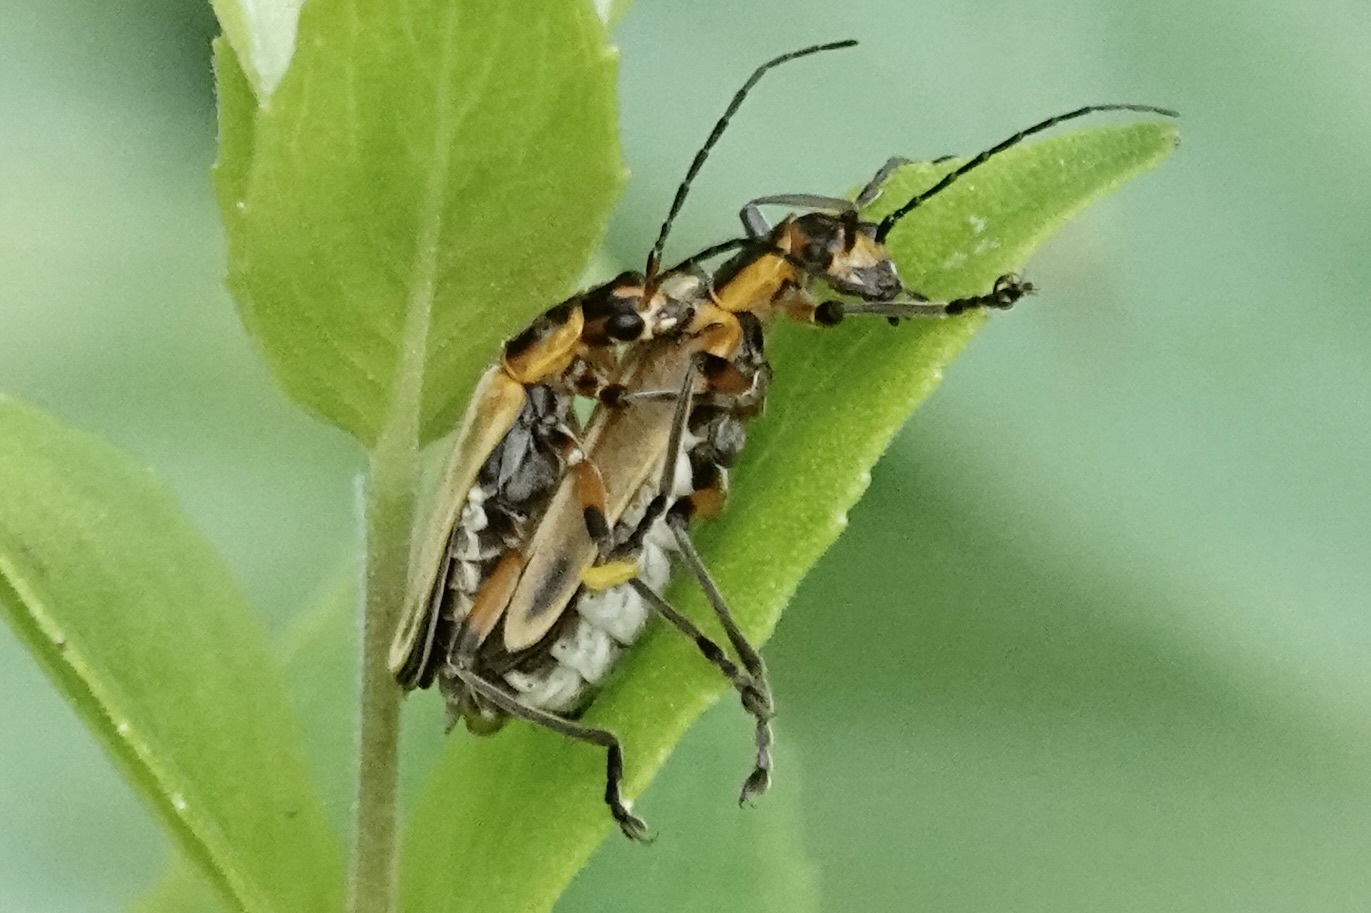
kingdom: Animalia
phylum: Arthropoda
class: Insecta
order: Coleoptera
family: Cantharidae
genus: Chauliognathus
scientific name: Chauliognathus marginatus
